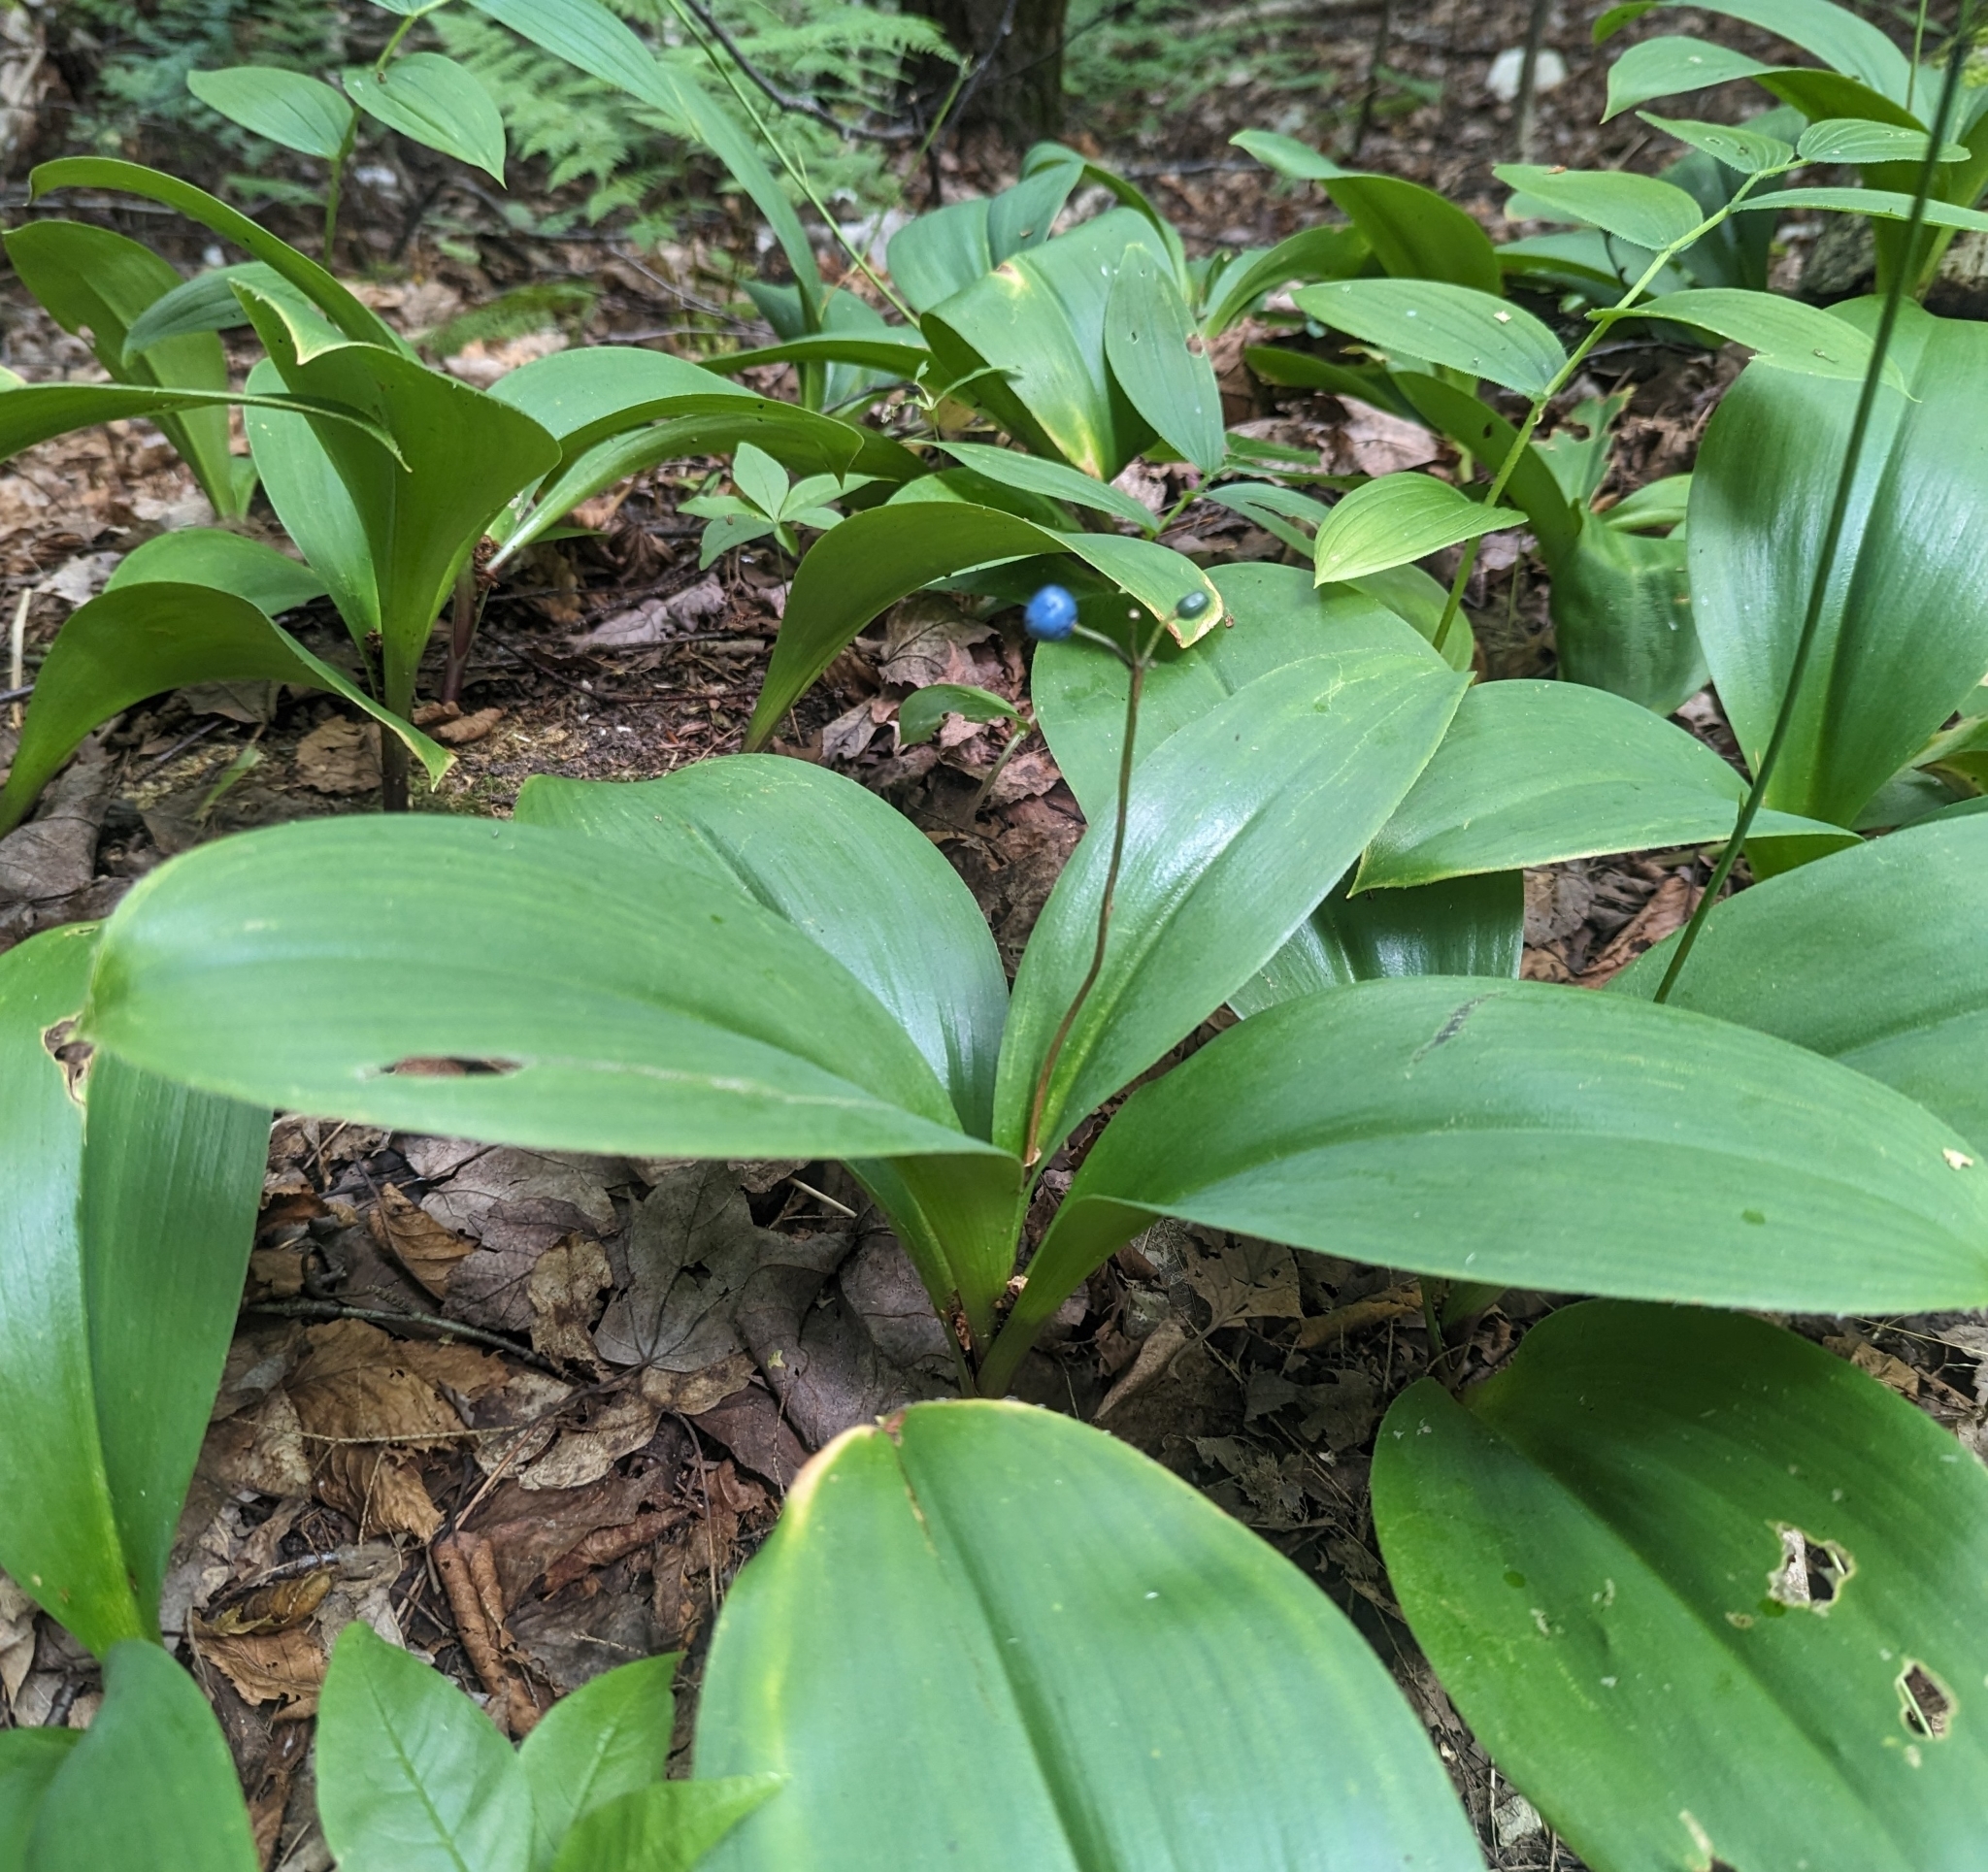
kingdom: Plantae
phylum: Tracheophyta
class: Liliopsida
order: Liliales
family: Liliaceae
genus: Clintonia
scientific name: Clintonia borealis
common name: Yellow clintonia
